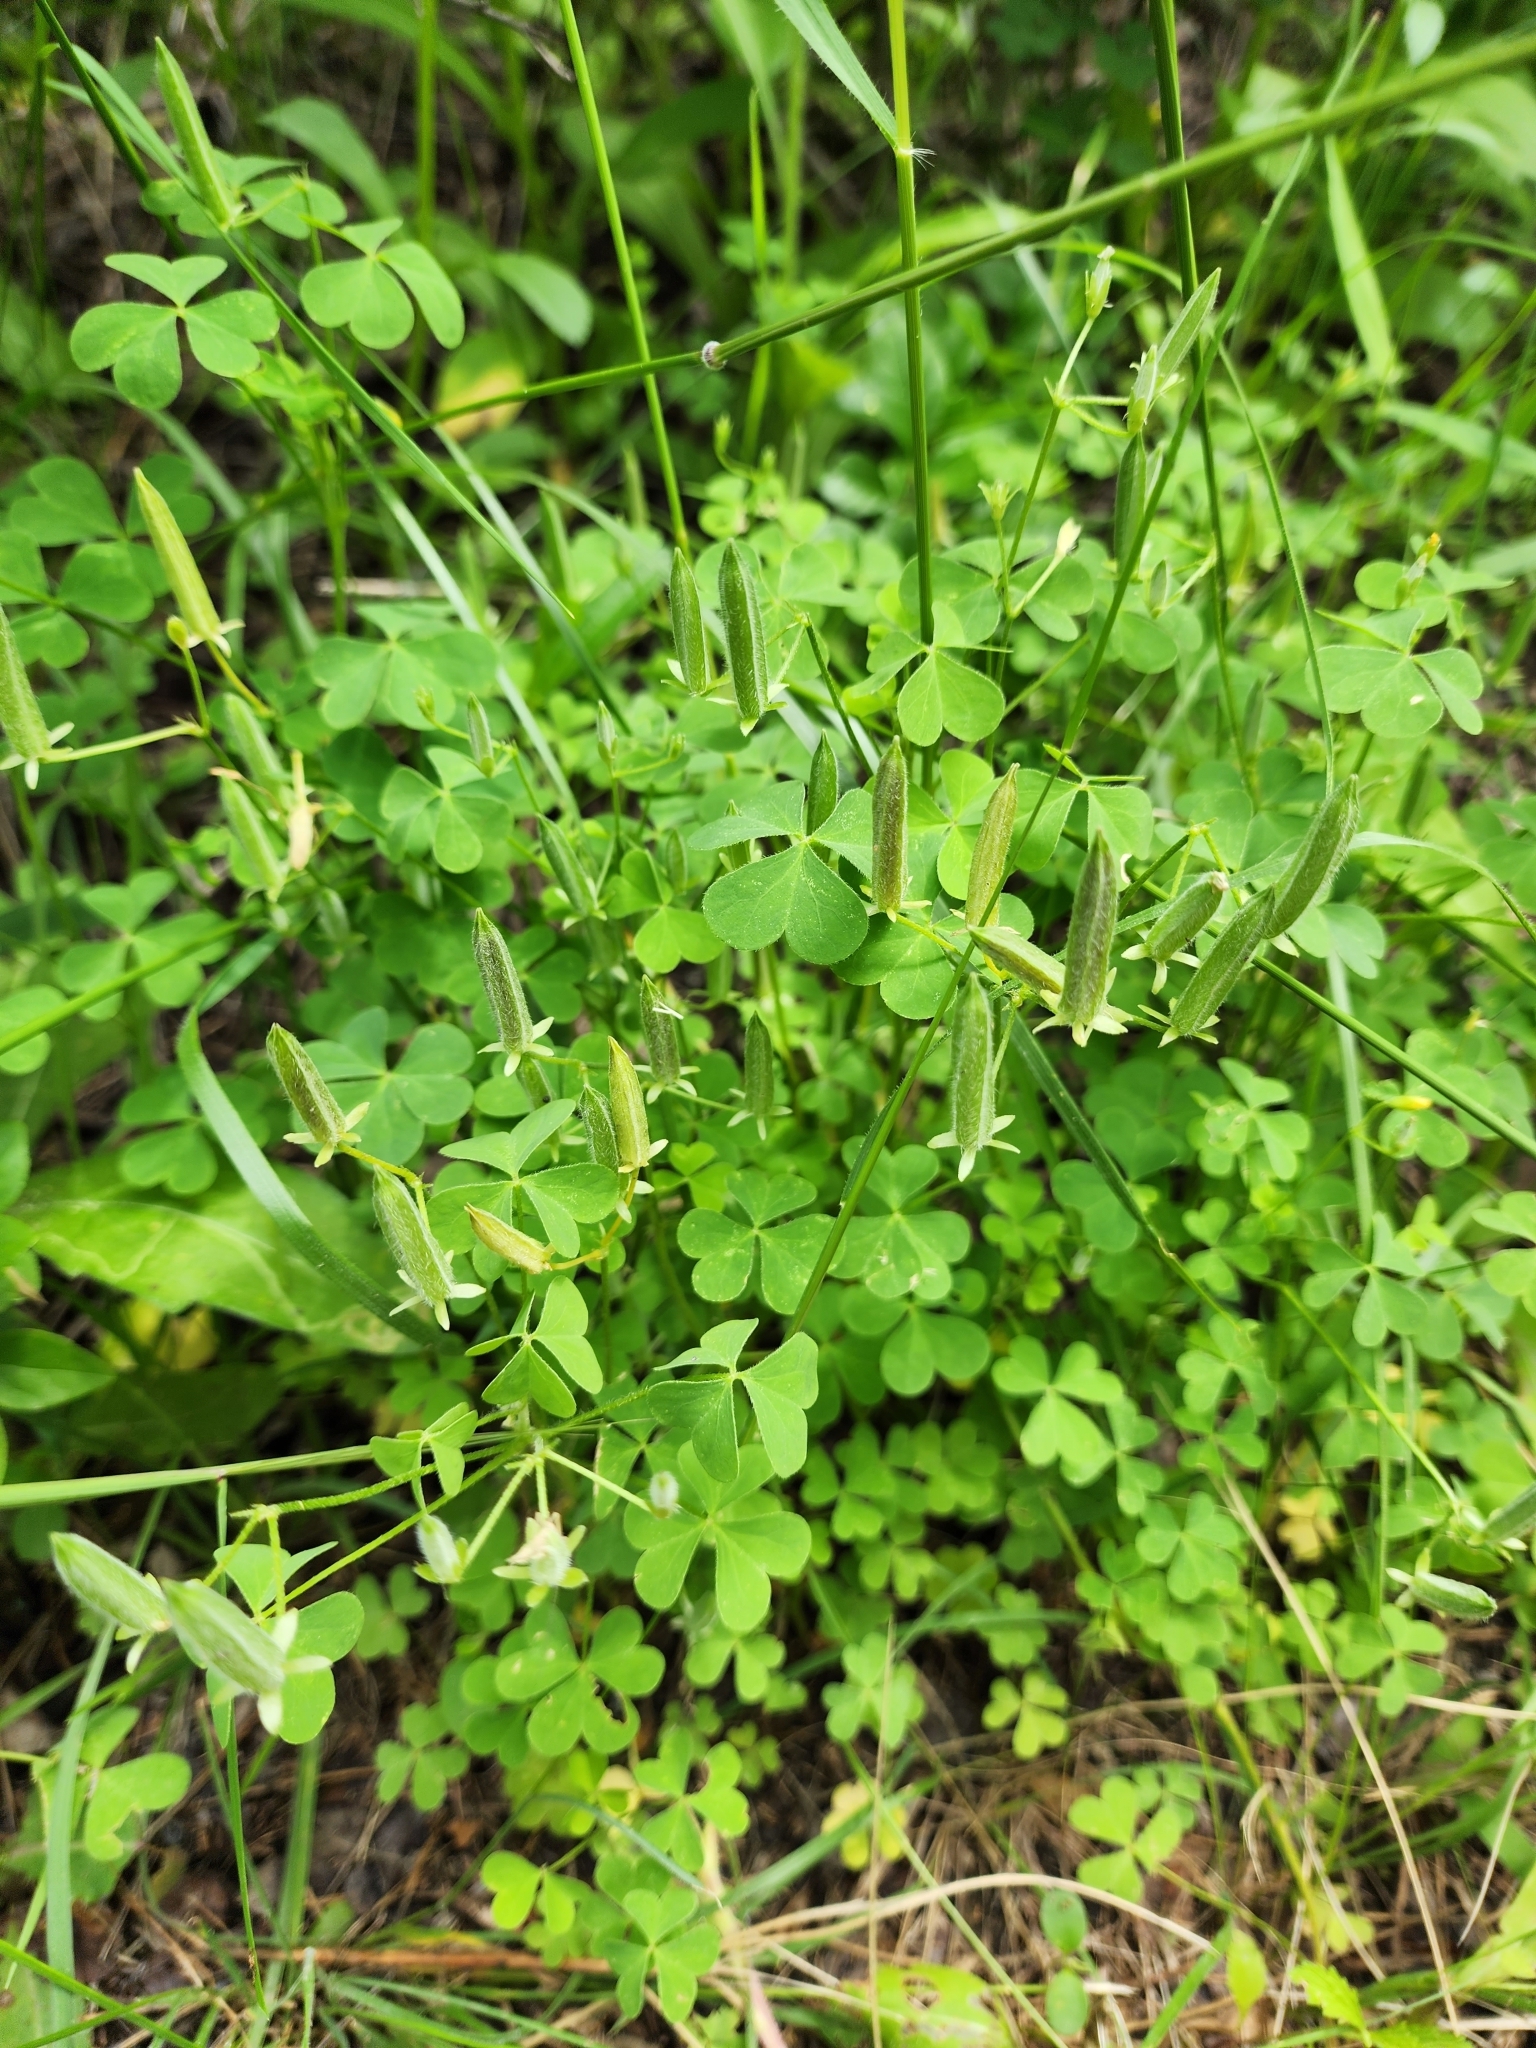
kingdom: Plantae
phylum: Tracheophyta
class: Magnoliopsida
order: Oxalidales
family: Oxalidaceae
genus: Oxalis
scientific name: Oxalis dillenii
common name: Sussex yellow-sorrel
